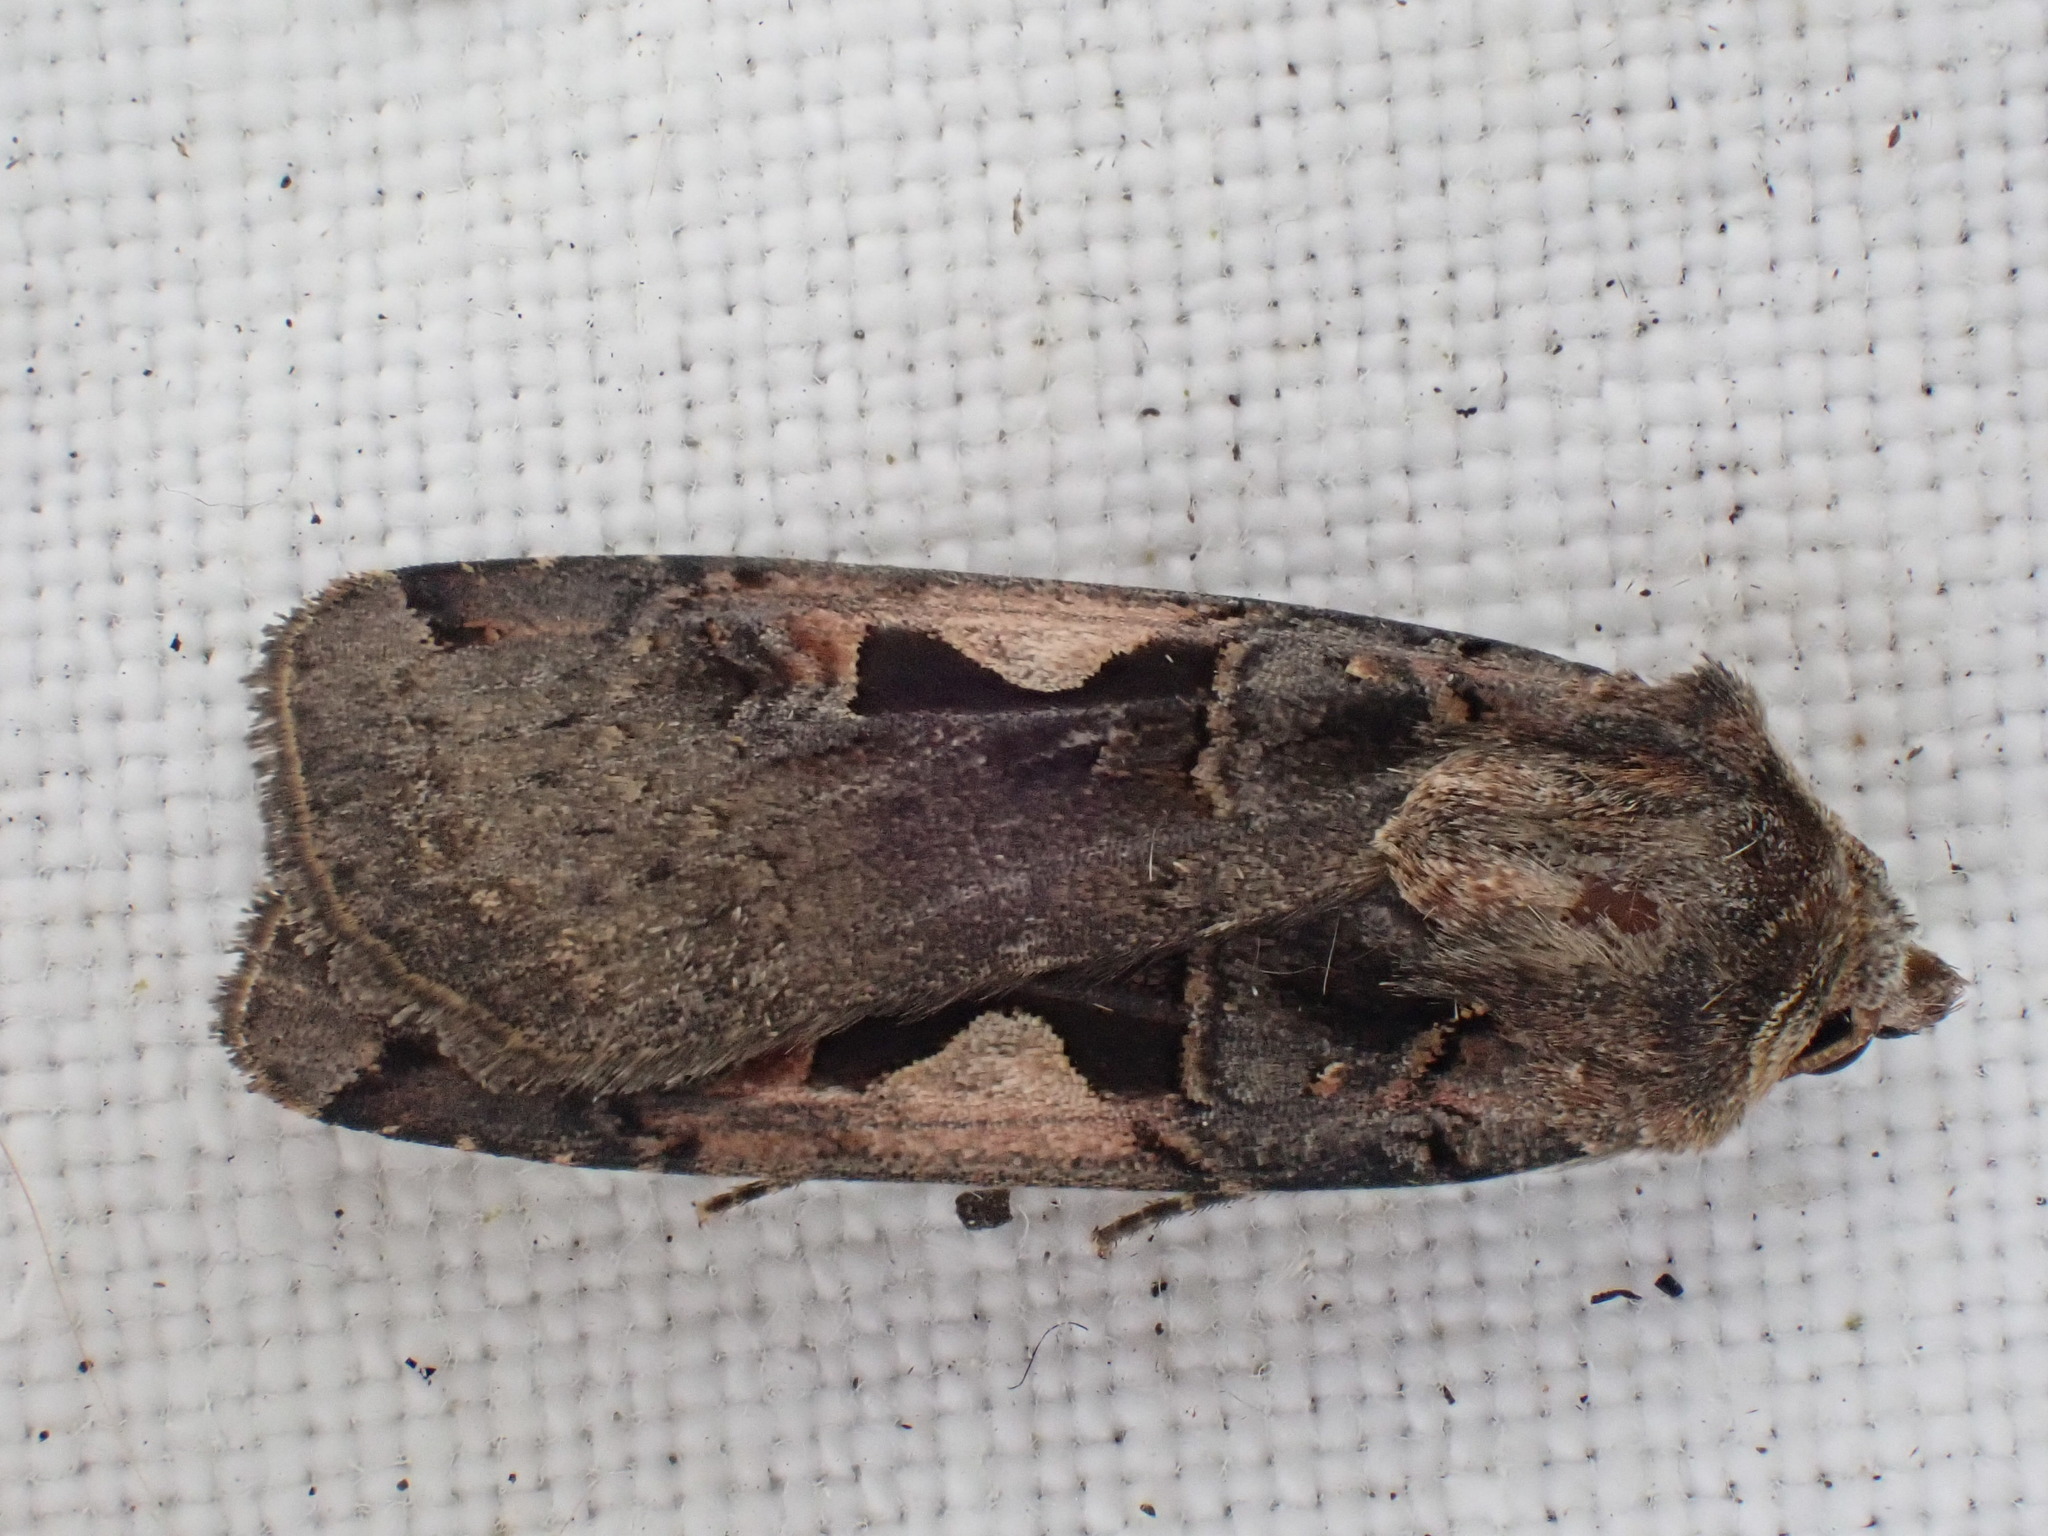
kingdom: Animalia
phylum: Arthropoda
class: Insecta
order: Lepidoptera
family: Noctuidae
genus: Xestia
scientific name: Xestia c-nigrum
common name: Setaceous hebrew character
